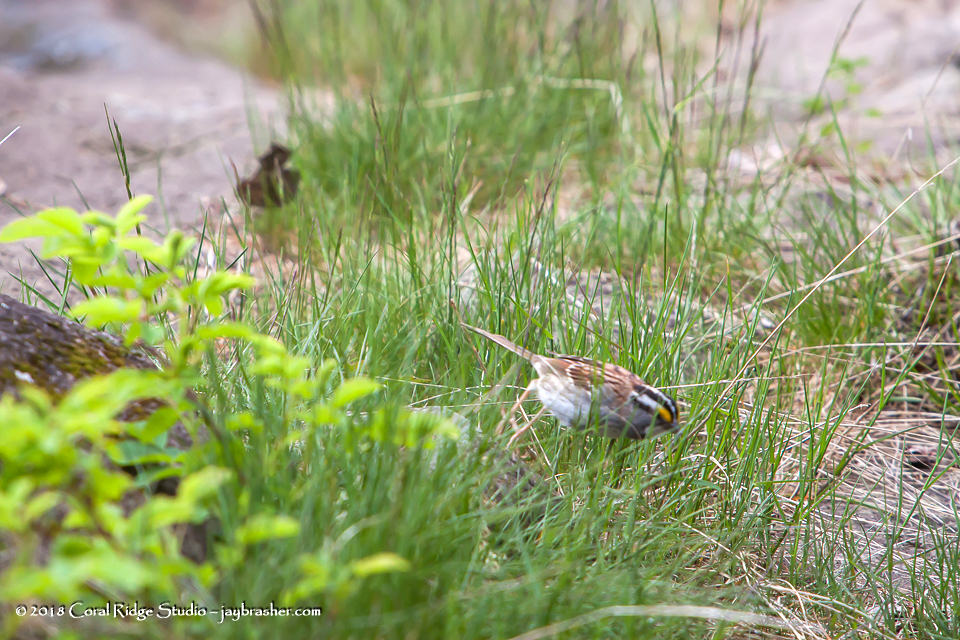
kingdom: Animalia
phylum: Chordata
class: Aves
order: Passeriformes
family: Passerellidae
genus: Zonotrichia
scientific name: Zonotrichia albicollis
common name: White-throated sparrow
